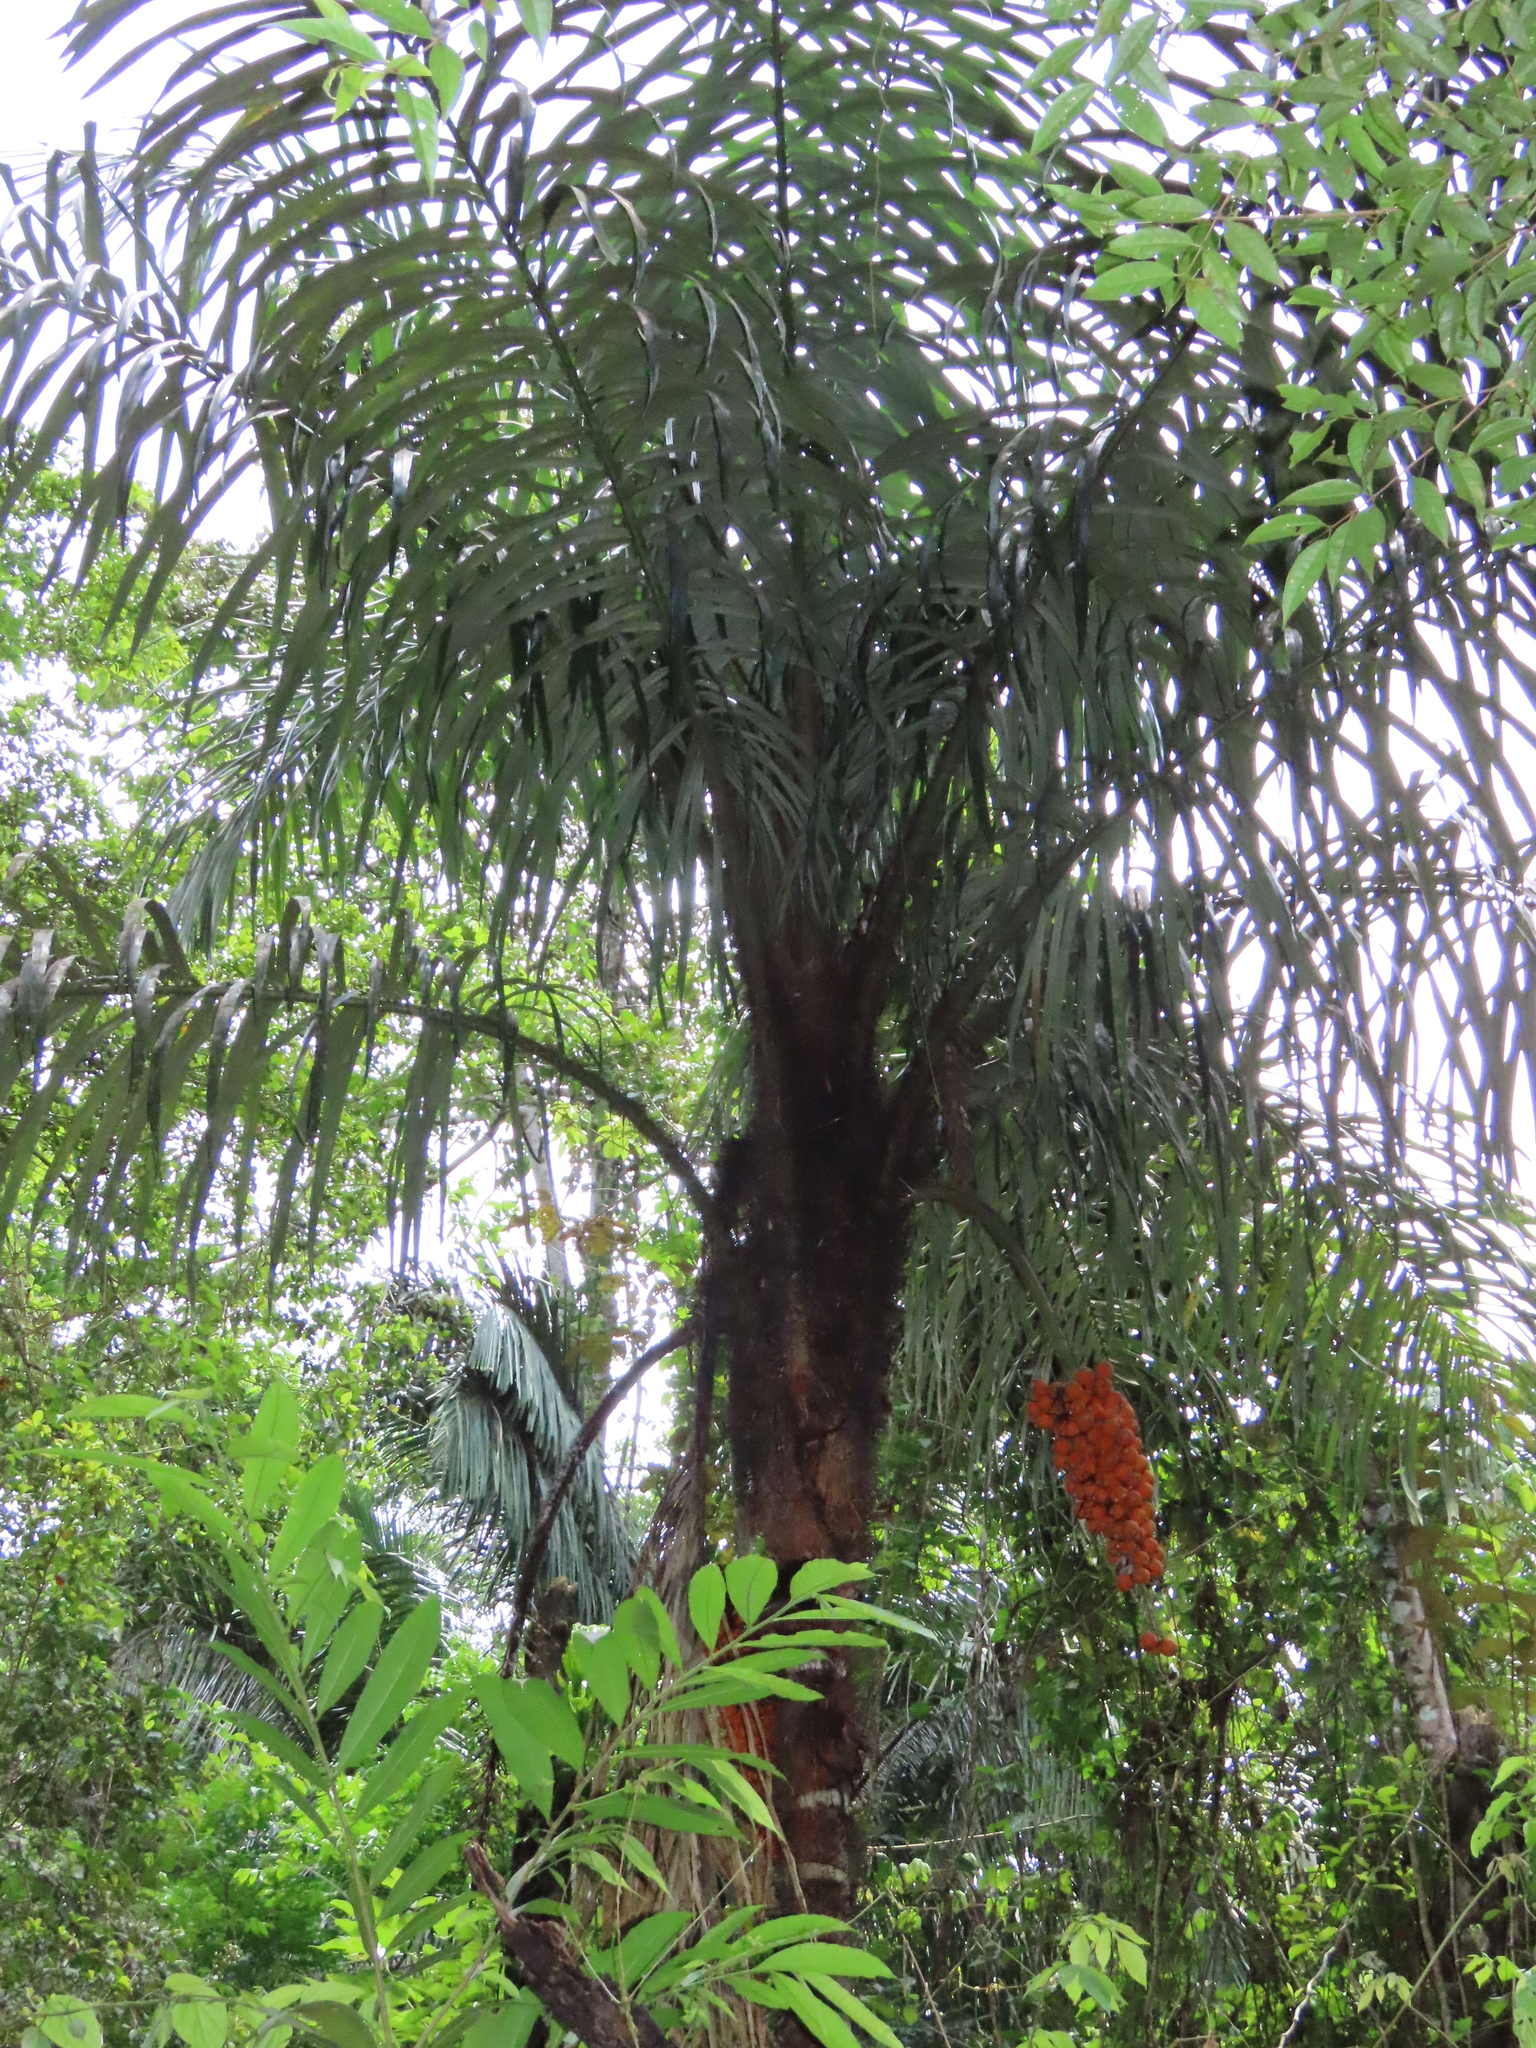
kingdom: Plantae
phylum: Tracheophyta
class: Liliopsida
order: Arecales
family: Arecaceae
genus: Astrocaryum
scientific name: Astrocaryum standleyanum
